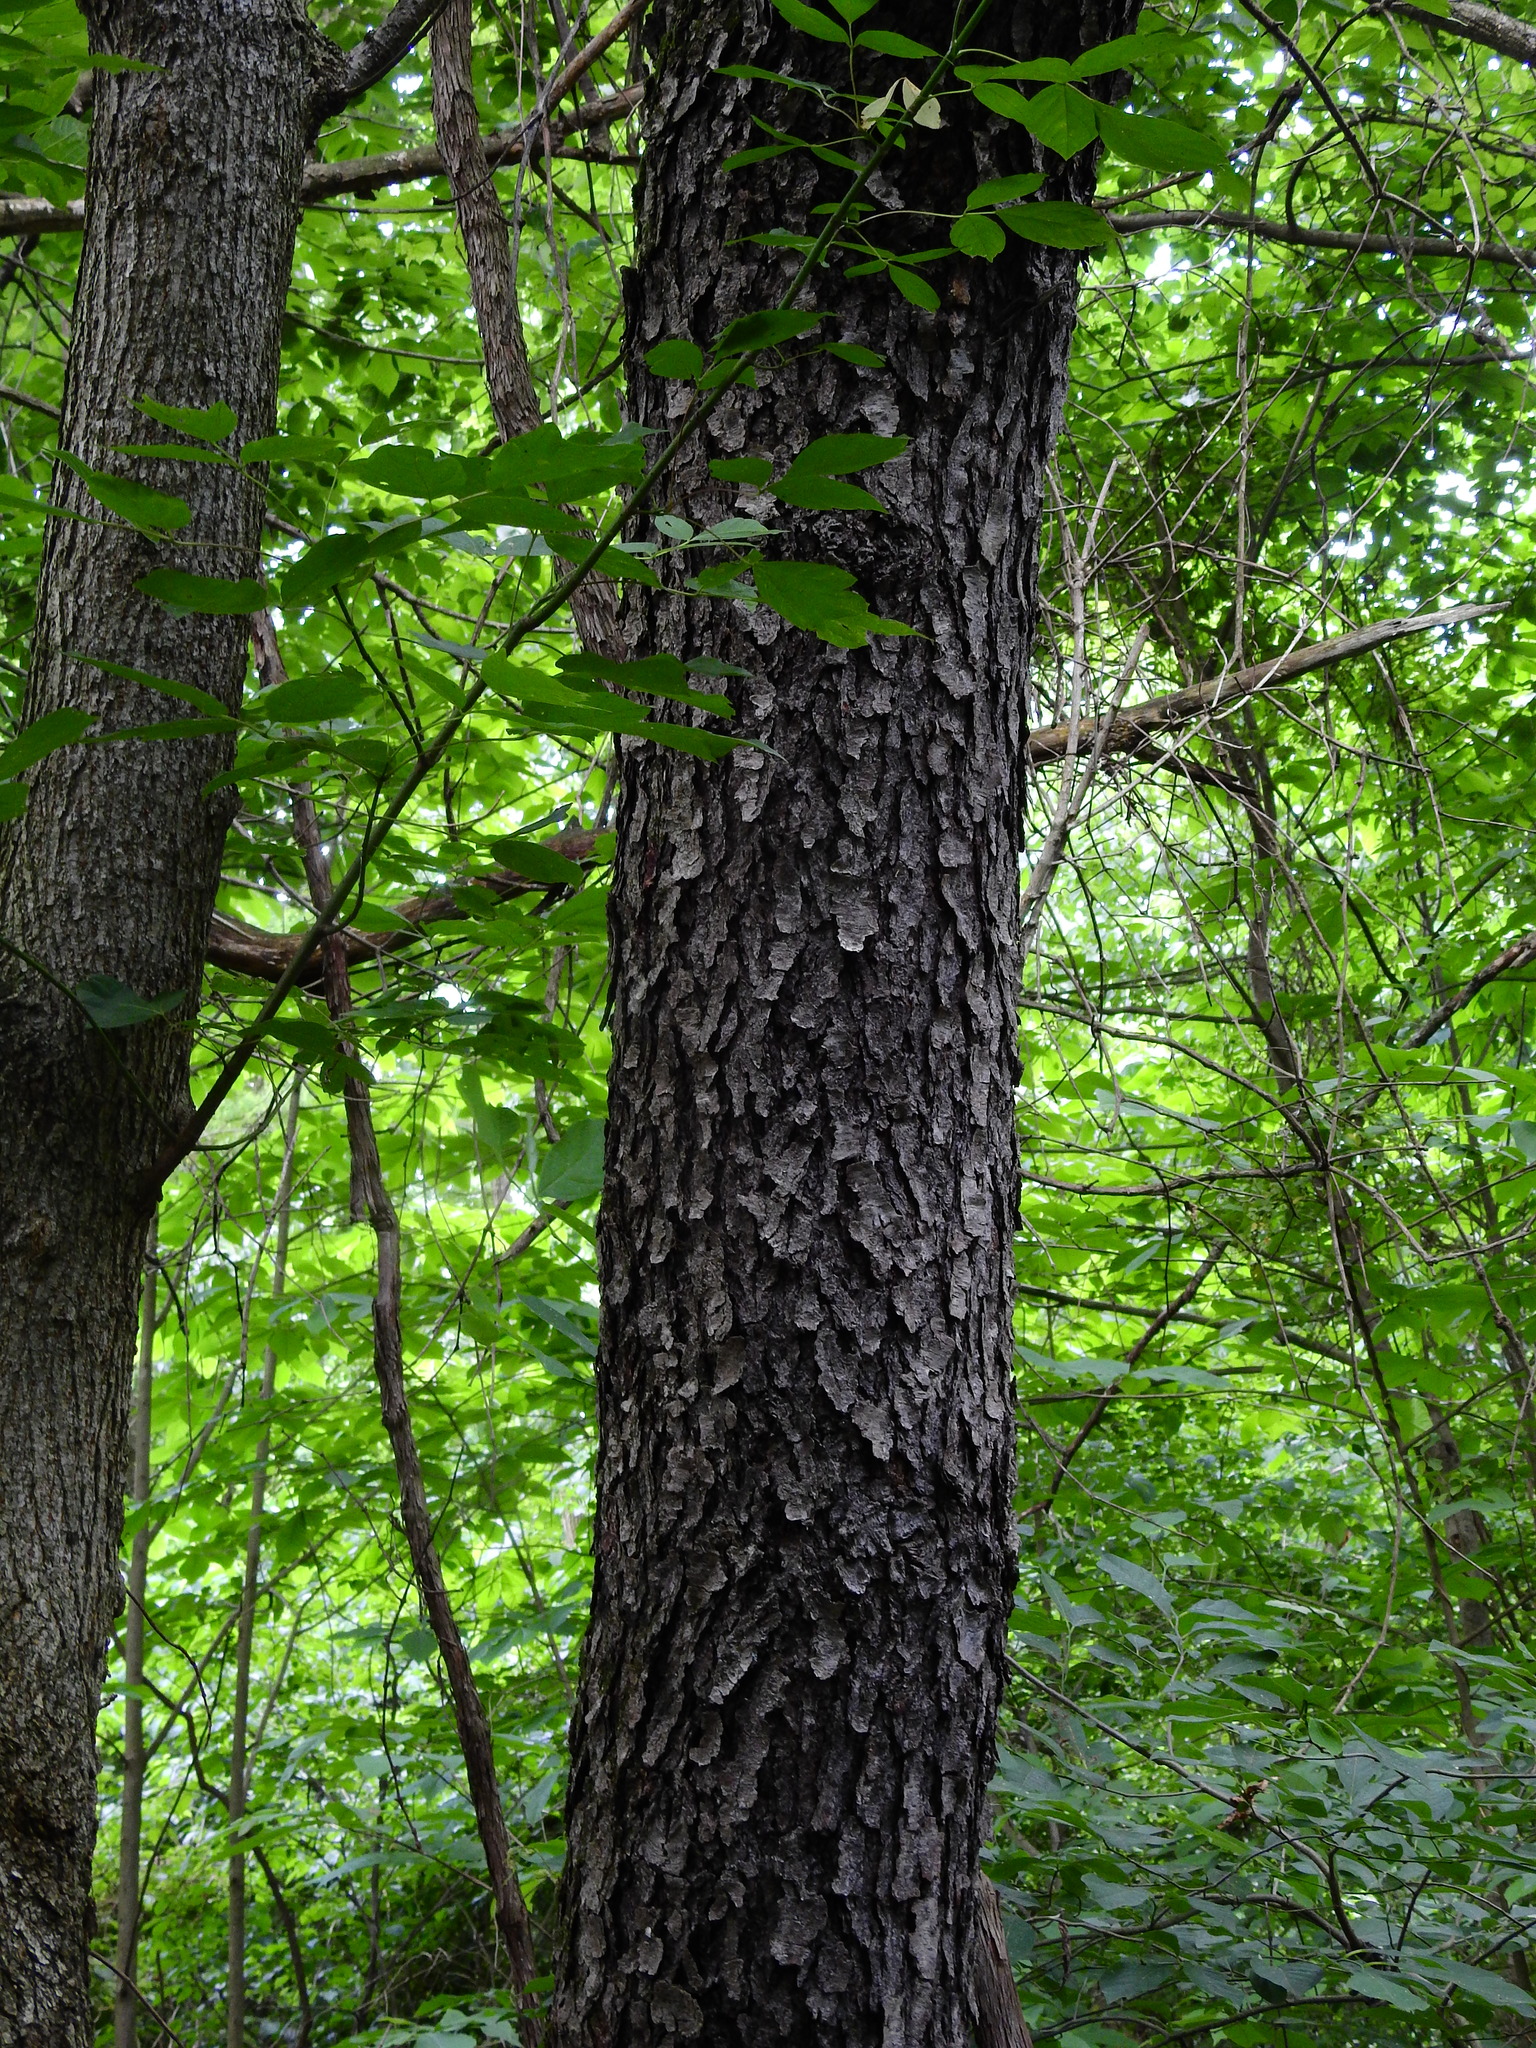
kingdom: Plantae
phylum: Tracheophyta
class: Magnoliopsida
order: Rosales
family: Rosaceae
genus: Prunus
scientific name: Prunus serotina
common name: Black cherry
